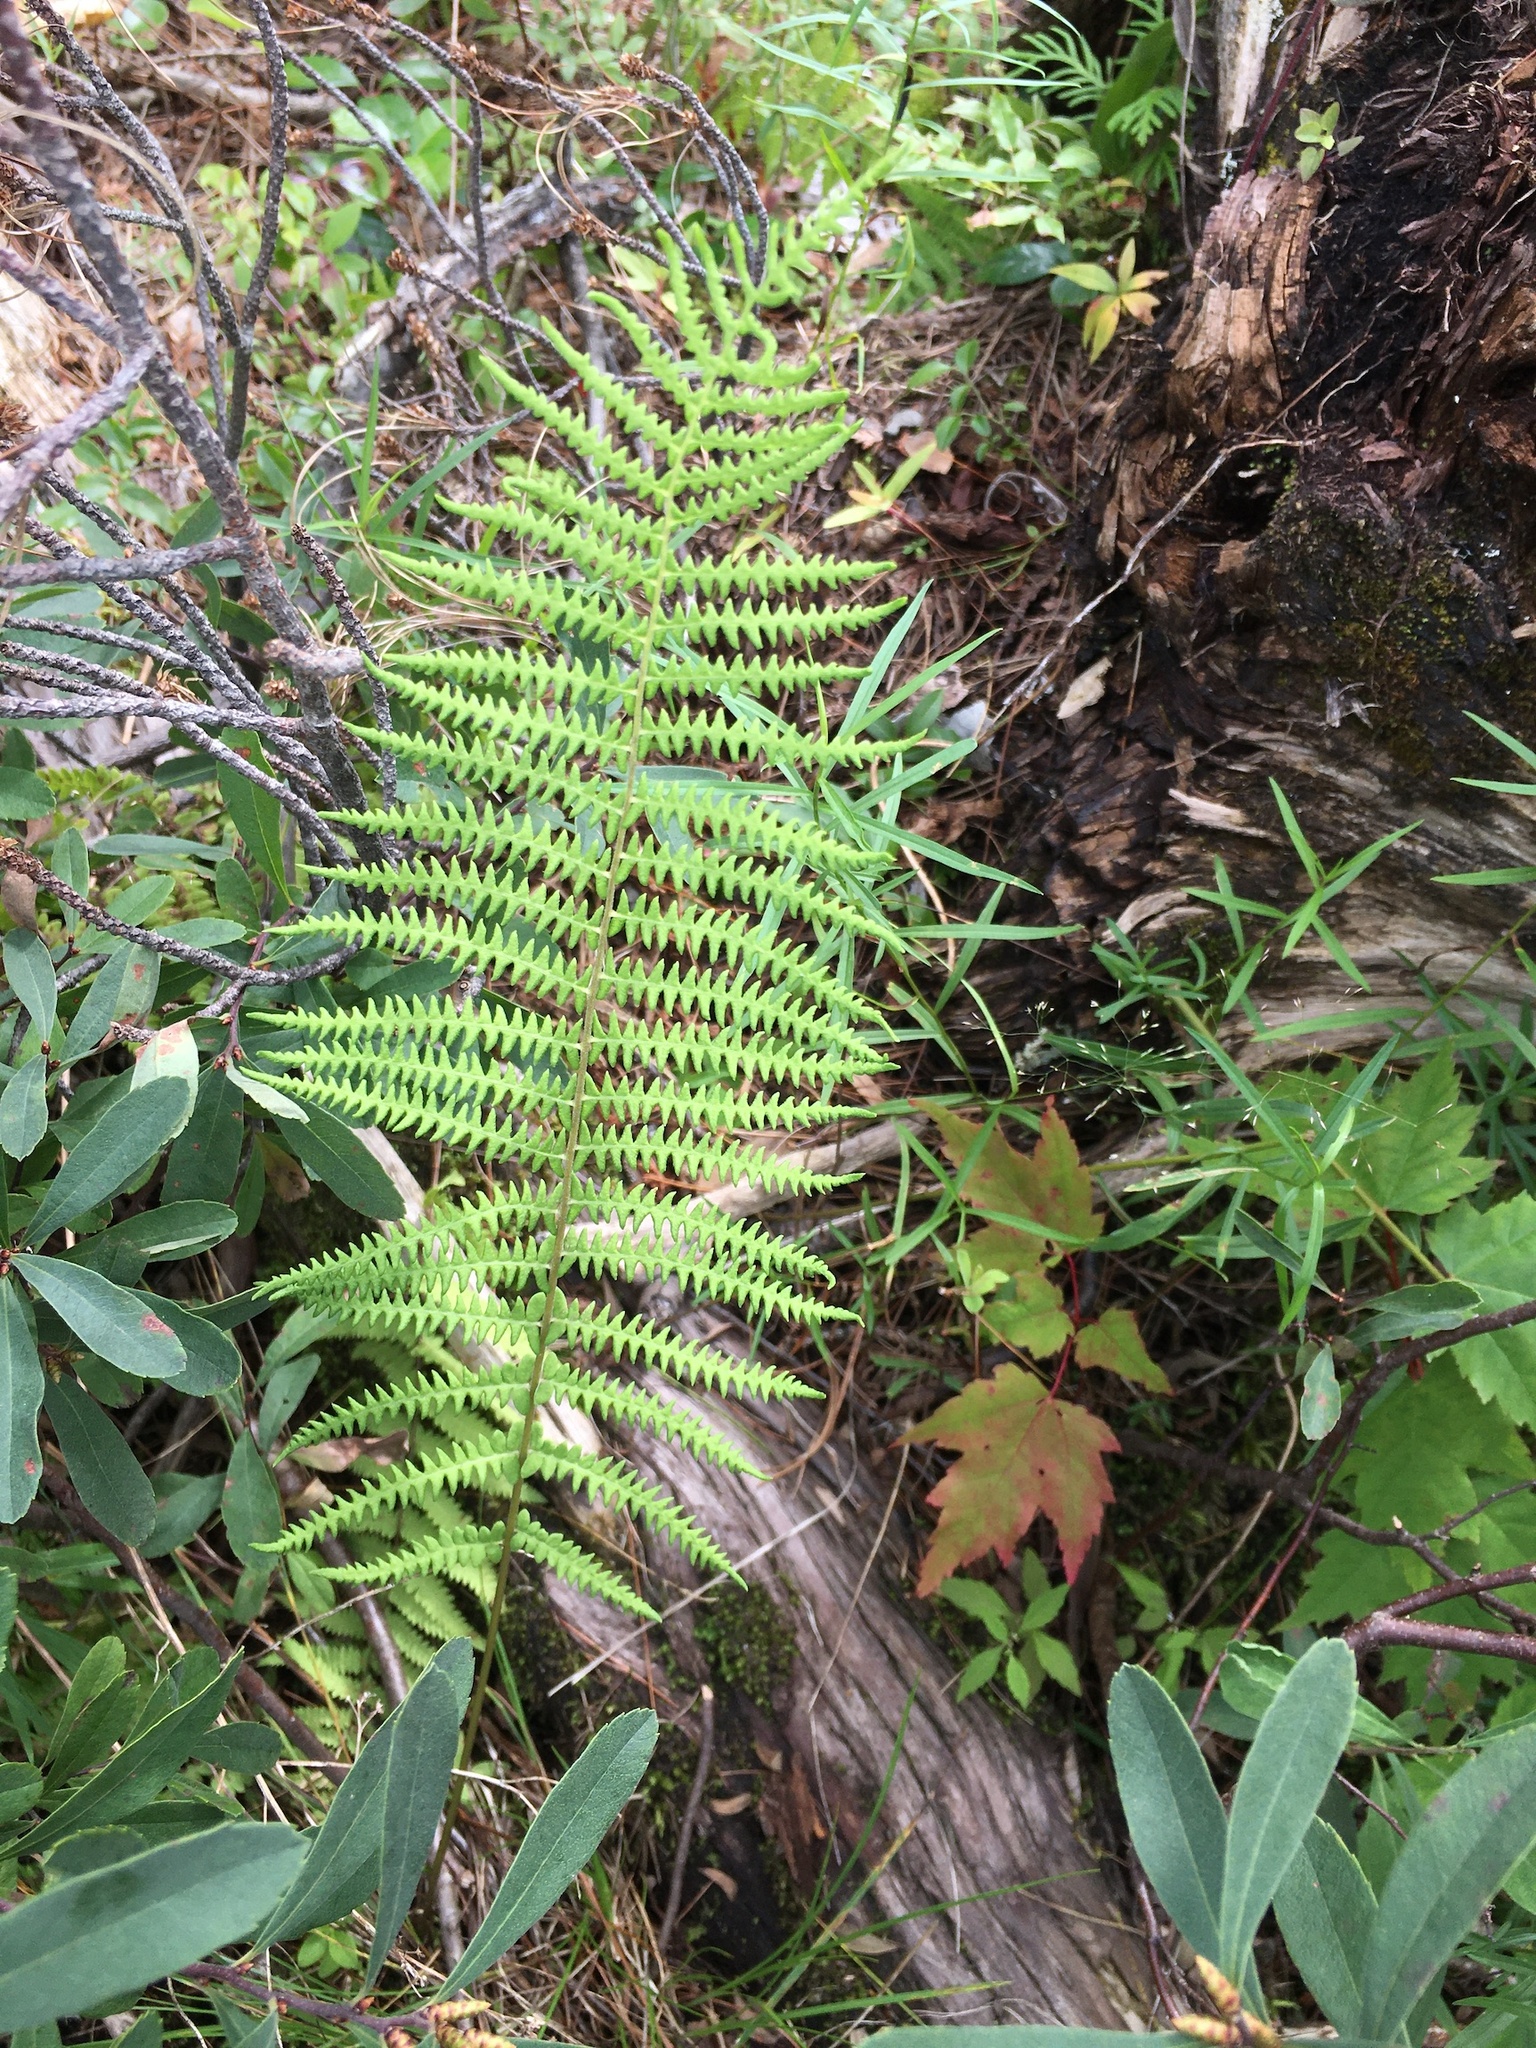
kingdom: Plantae
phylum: Tracheophyta
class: Polypodiopsida
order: Polypodiales
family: Thelypteridaceae
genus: Thelypteris
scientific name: Thelypteris palustris
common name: Marsh fern
